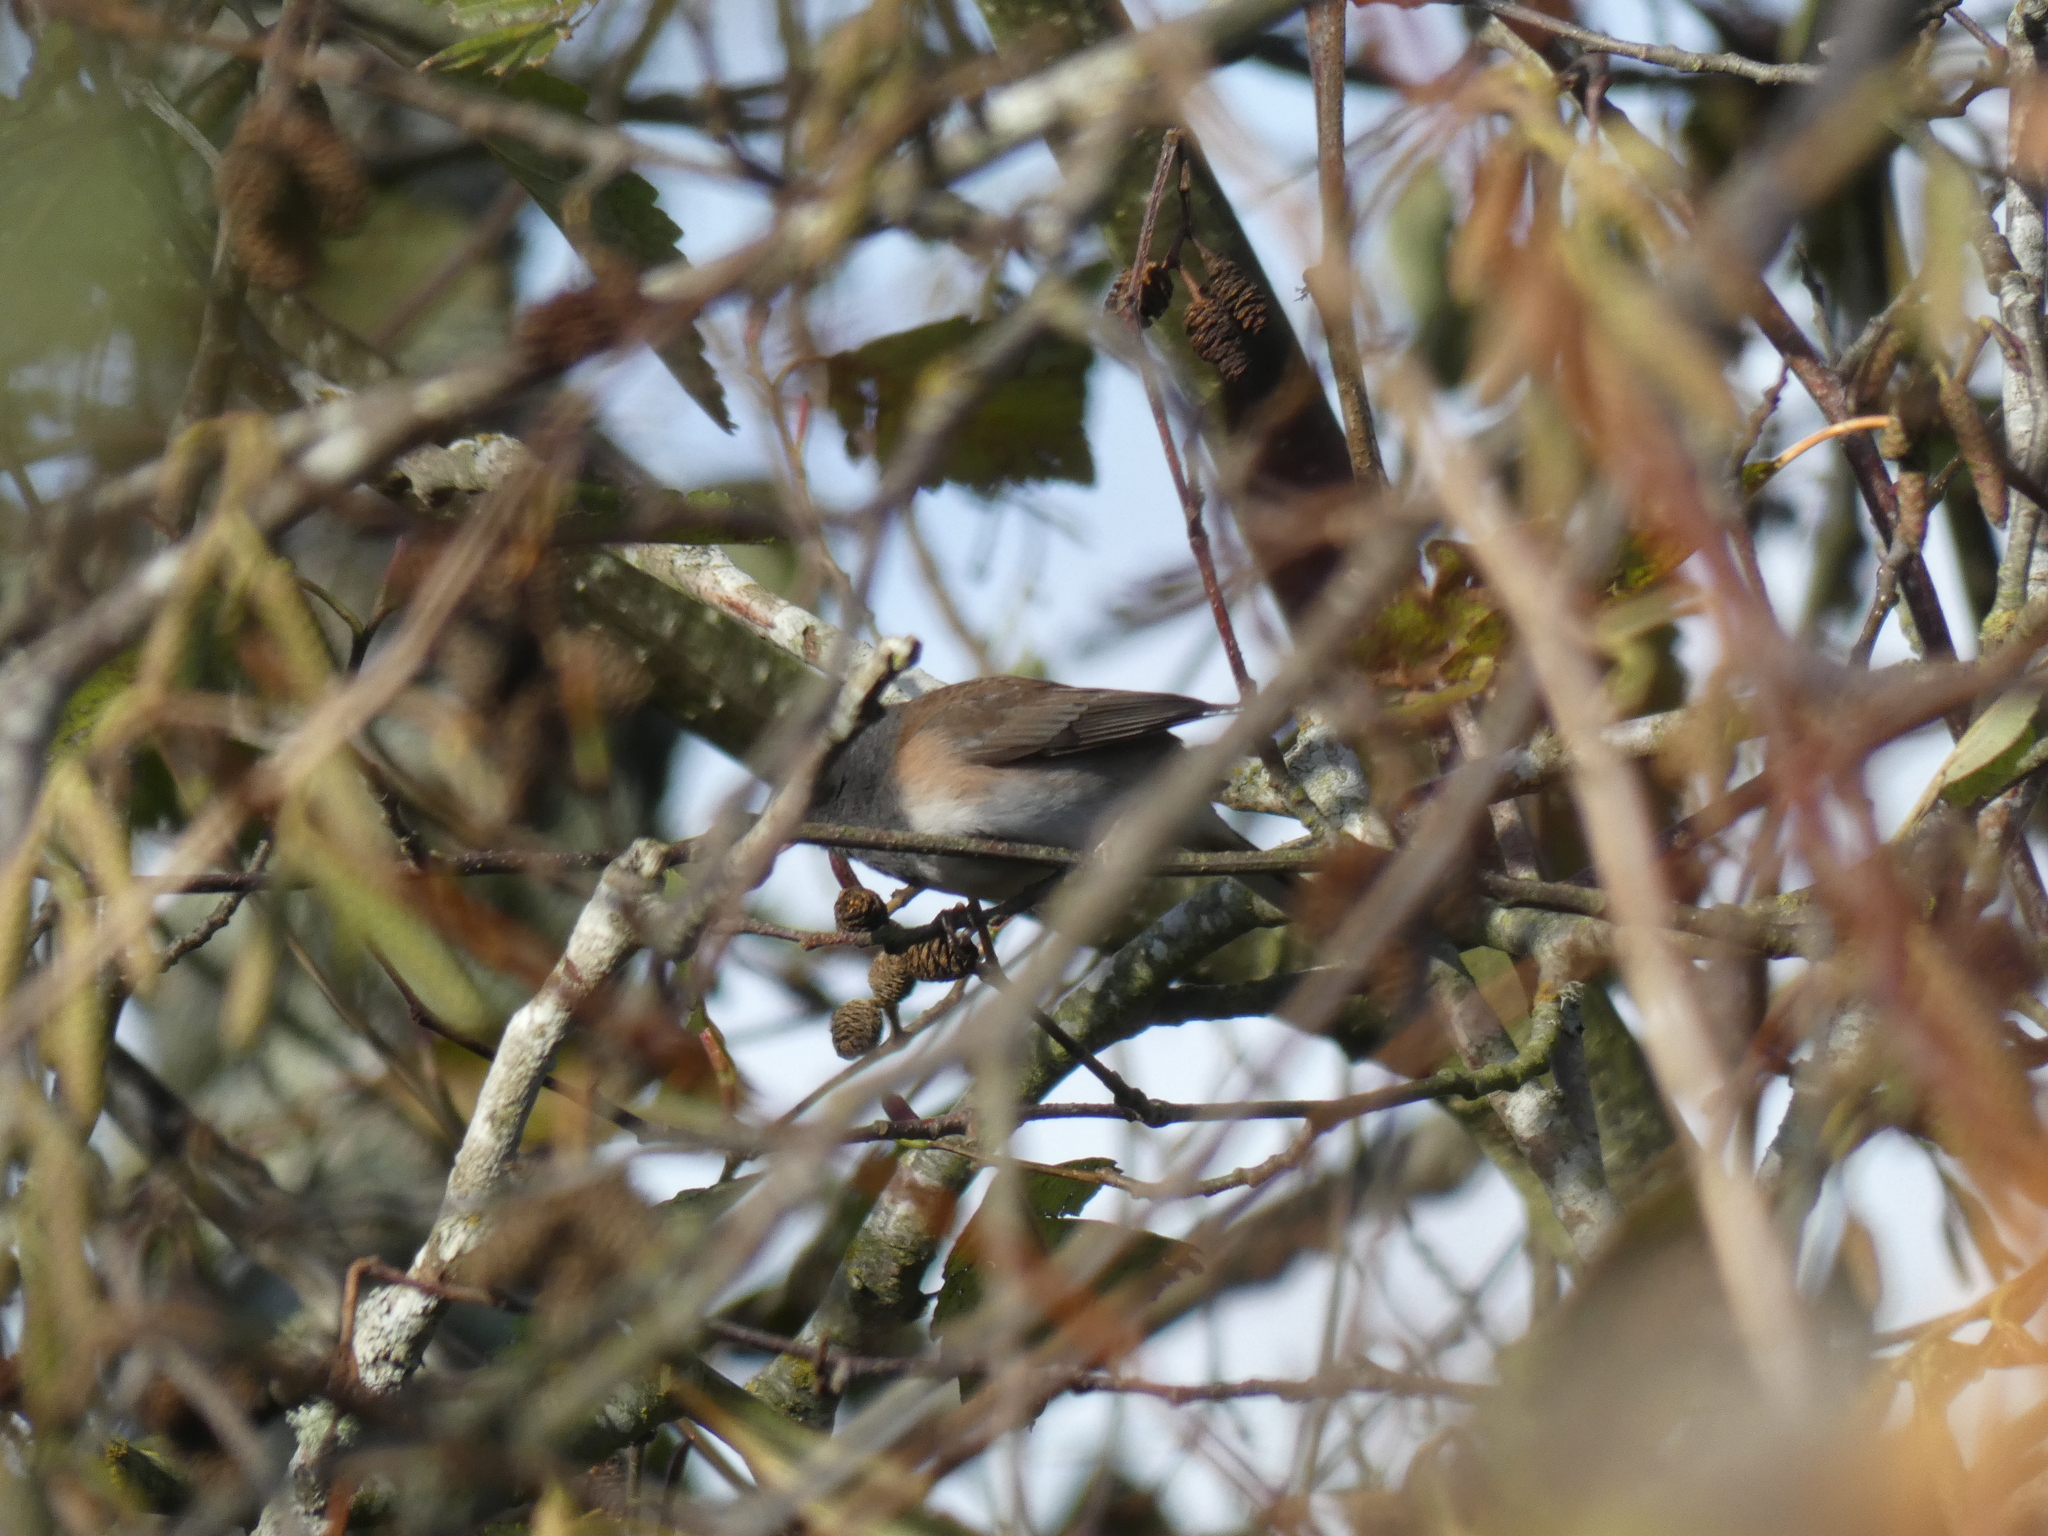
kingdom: Animalia
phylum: Chordata
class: Aves
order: Passeriformes
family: Passerellidae
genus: Junco
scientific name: Junco hyemalis
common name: Dark-eyed junco
